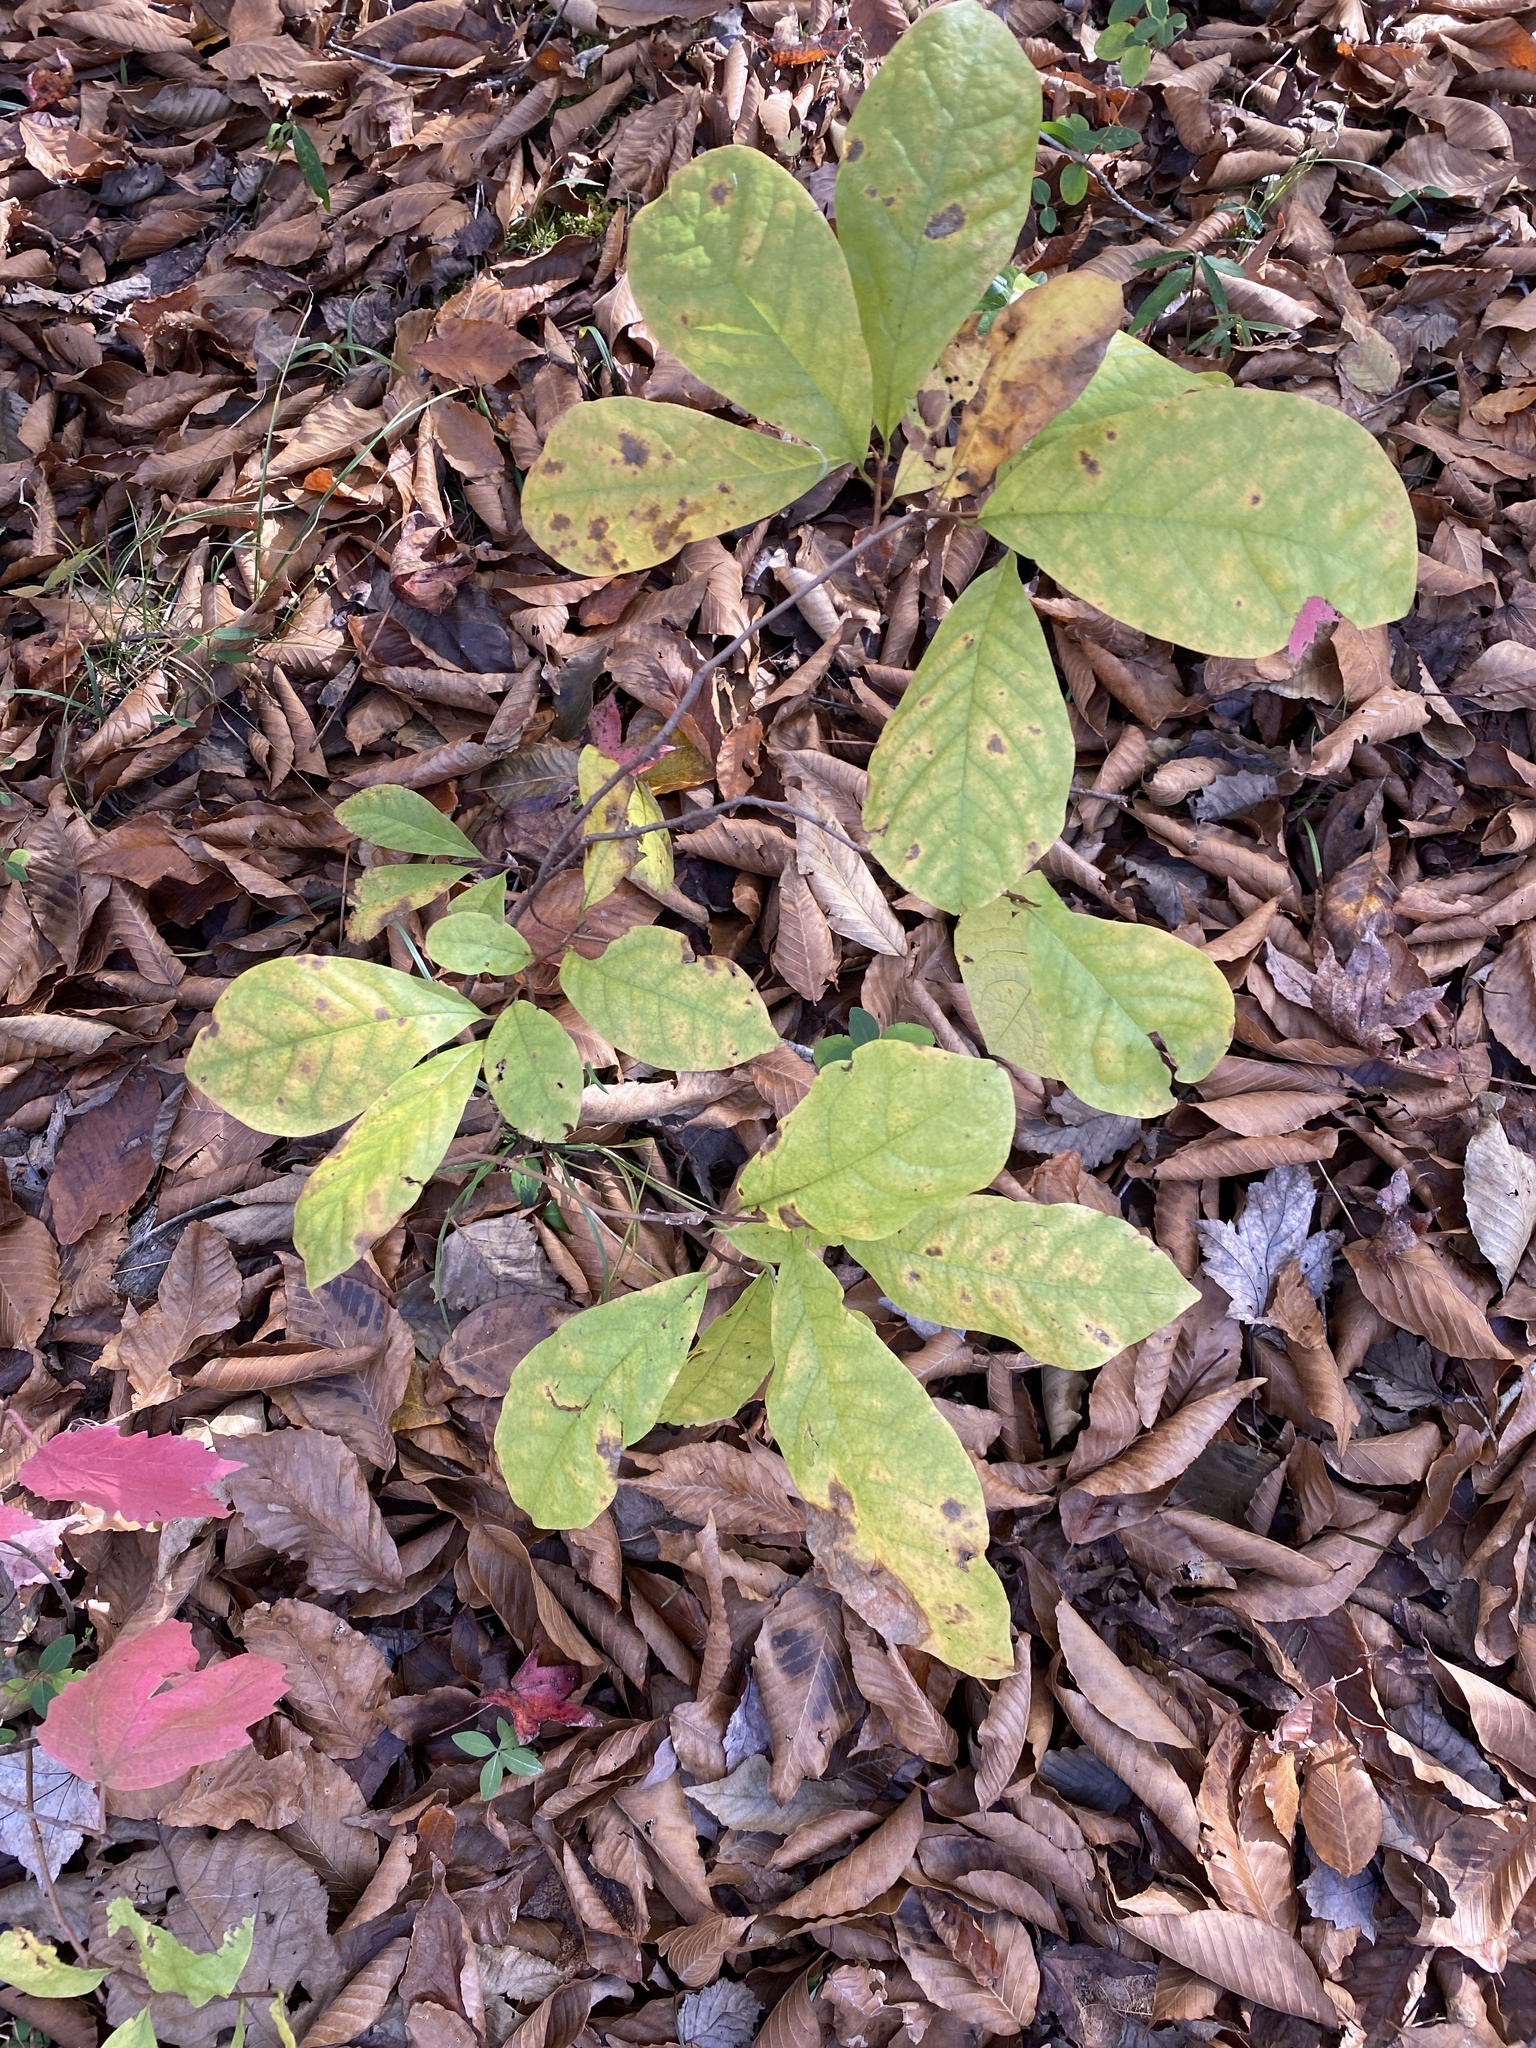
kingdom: Plantae
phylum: Tracheophyta
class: Magnoliopsida
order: Magnoliales
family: Annonaceae
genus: Asimina
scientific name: Asimina parviflora
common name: Dwarf pawpaw
